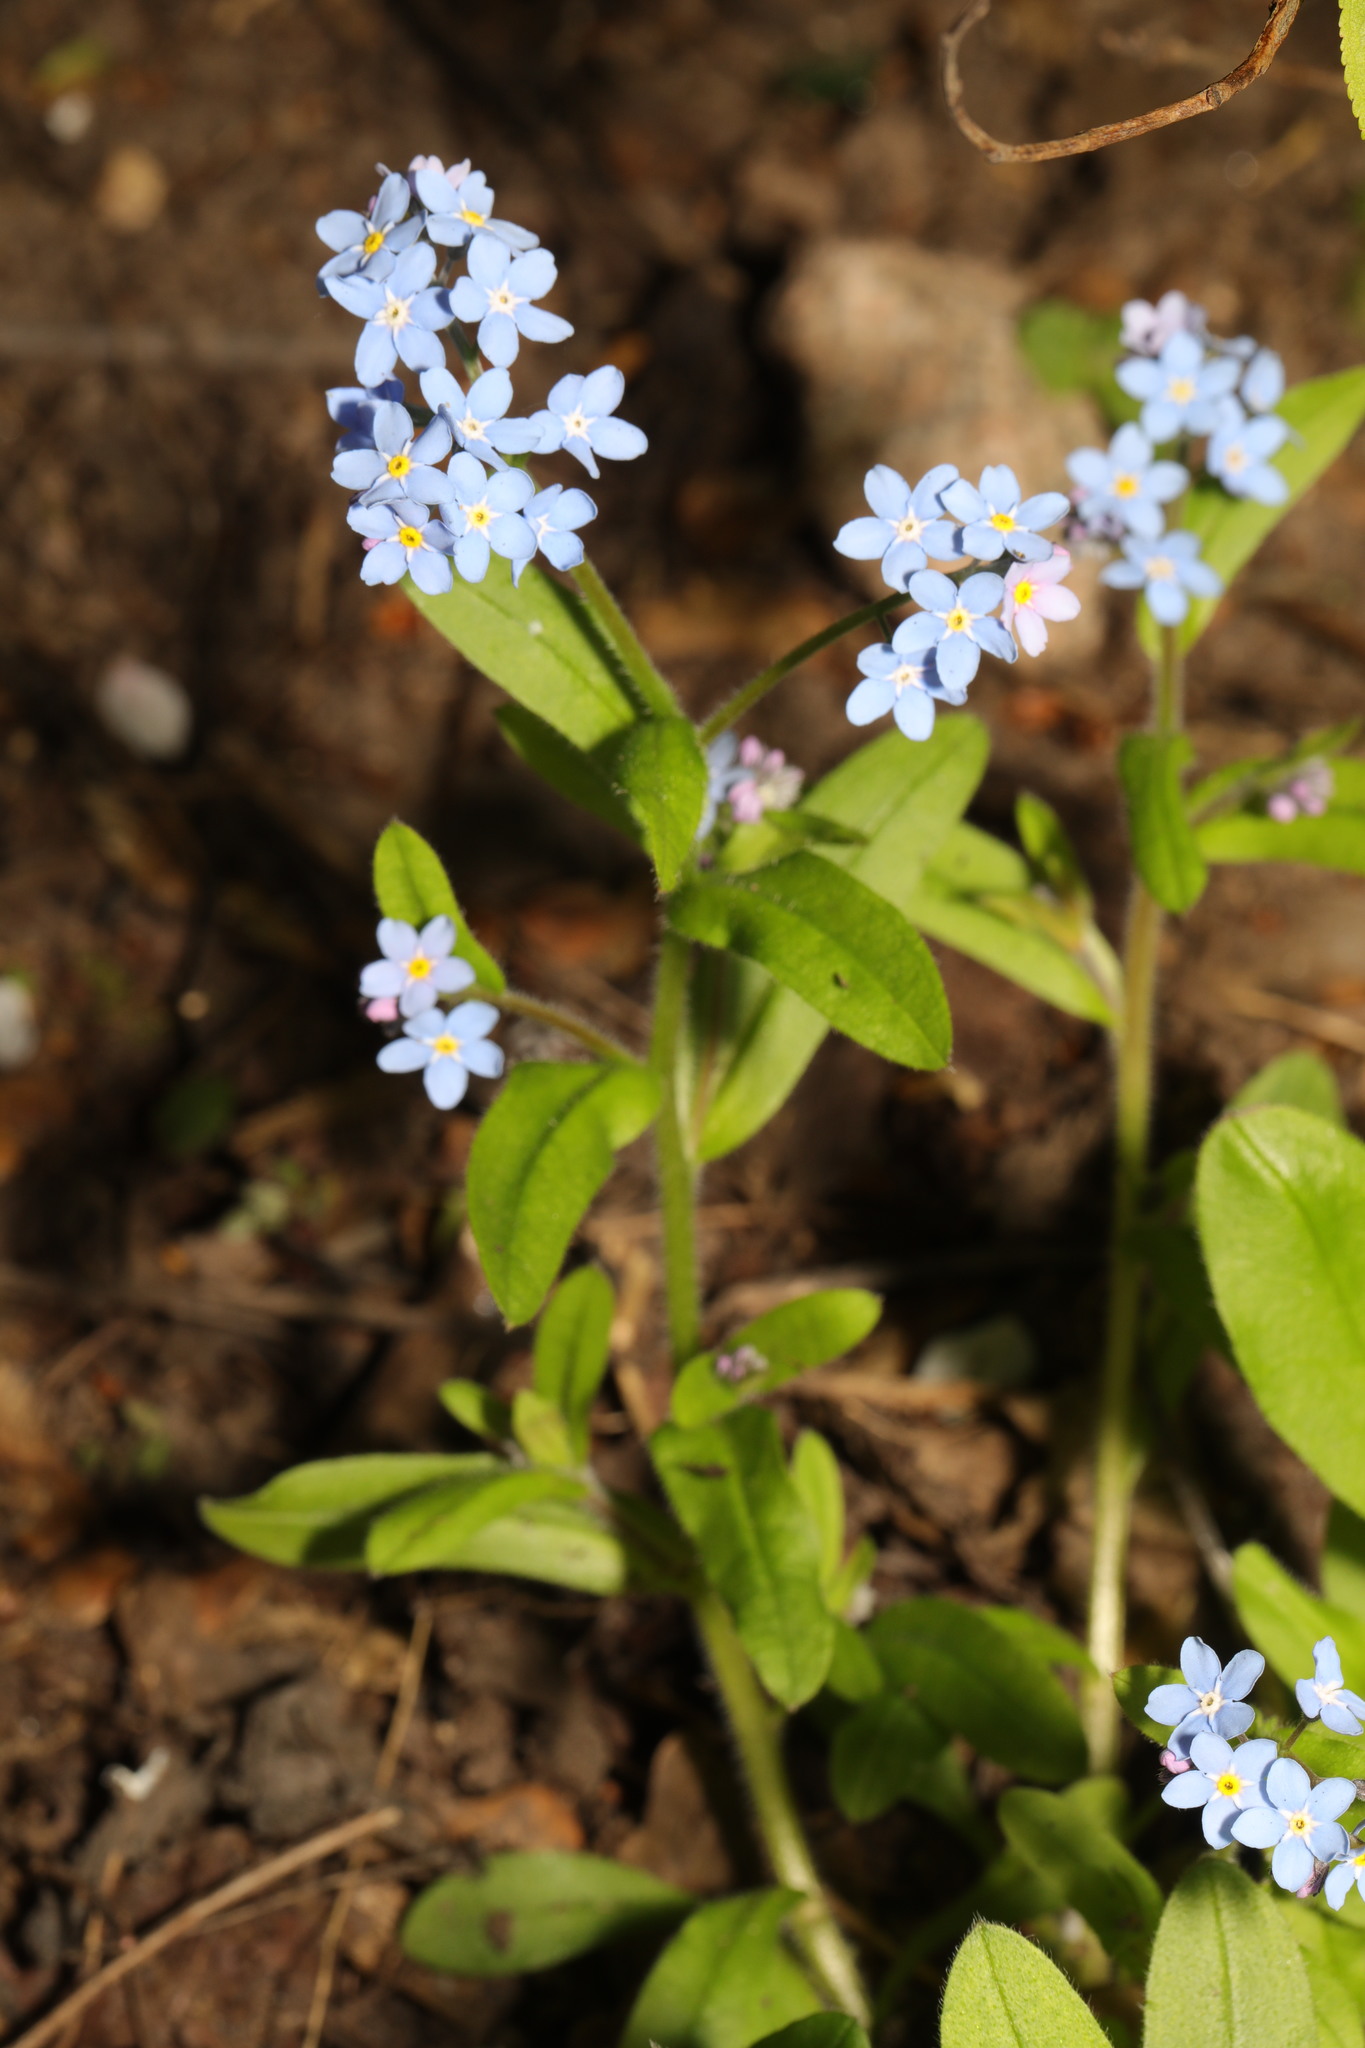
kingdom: Plantae
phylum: Tracheophyta
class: Magnoliopsida
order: Boraginales
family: Boraginaceae
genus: Myosotis
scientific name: Myosotis sylvatica
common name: Wood forget-me-not
